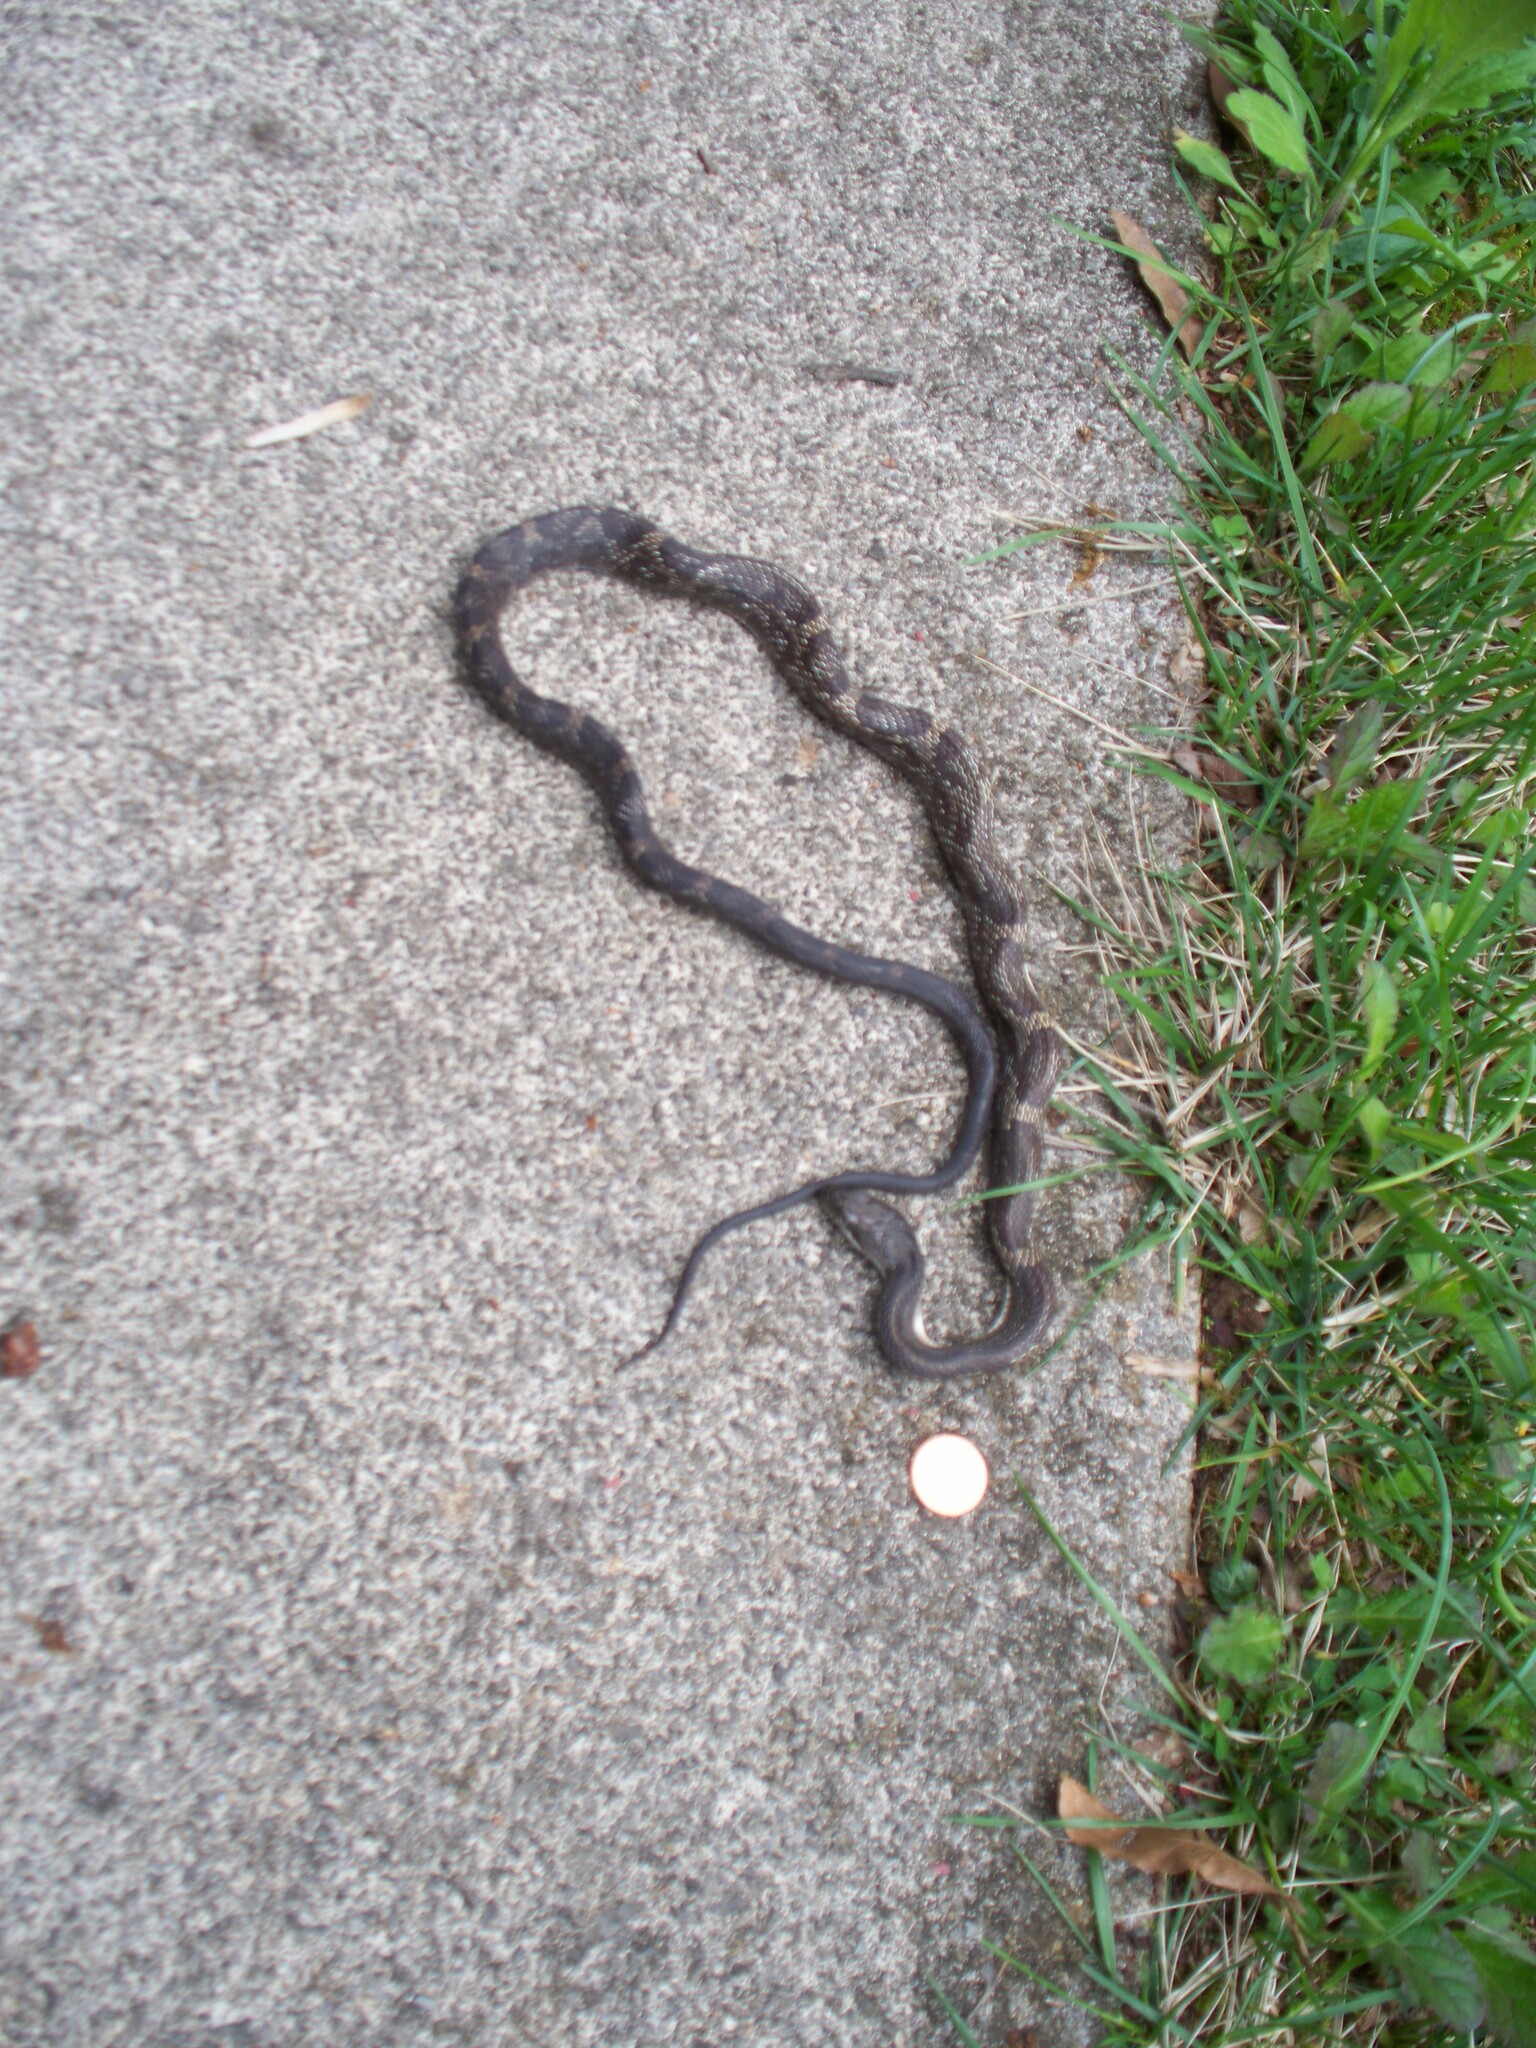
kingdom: Animalia
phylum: Chordata
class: Squamata
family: Colubridae
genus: Pantherophis
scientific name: Pantherophis spiloides
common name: Gray rat snake
